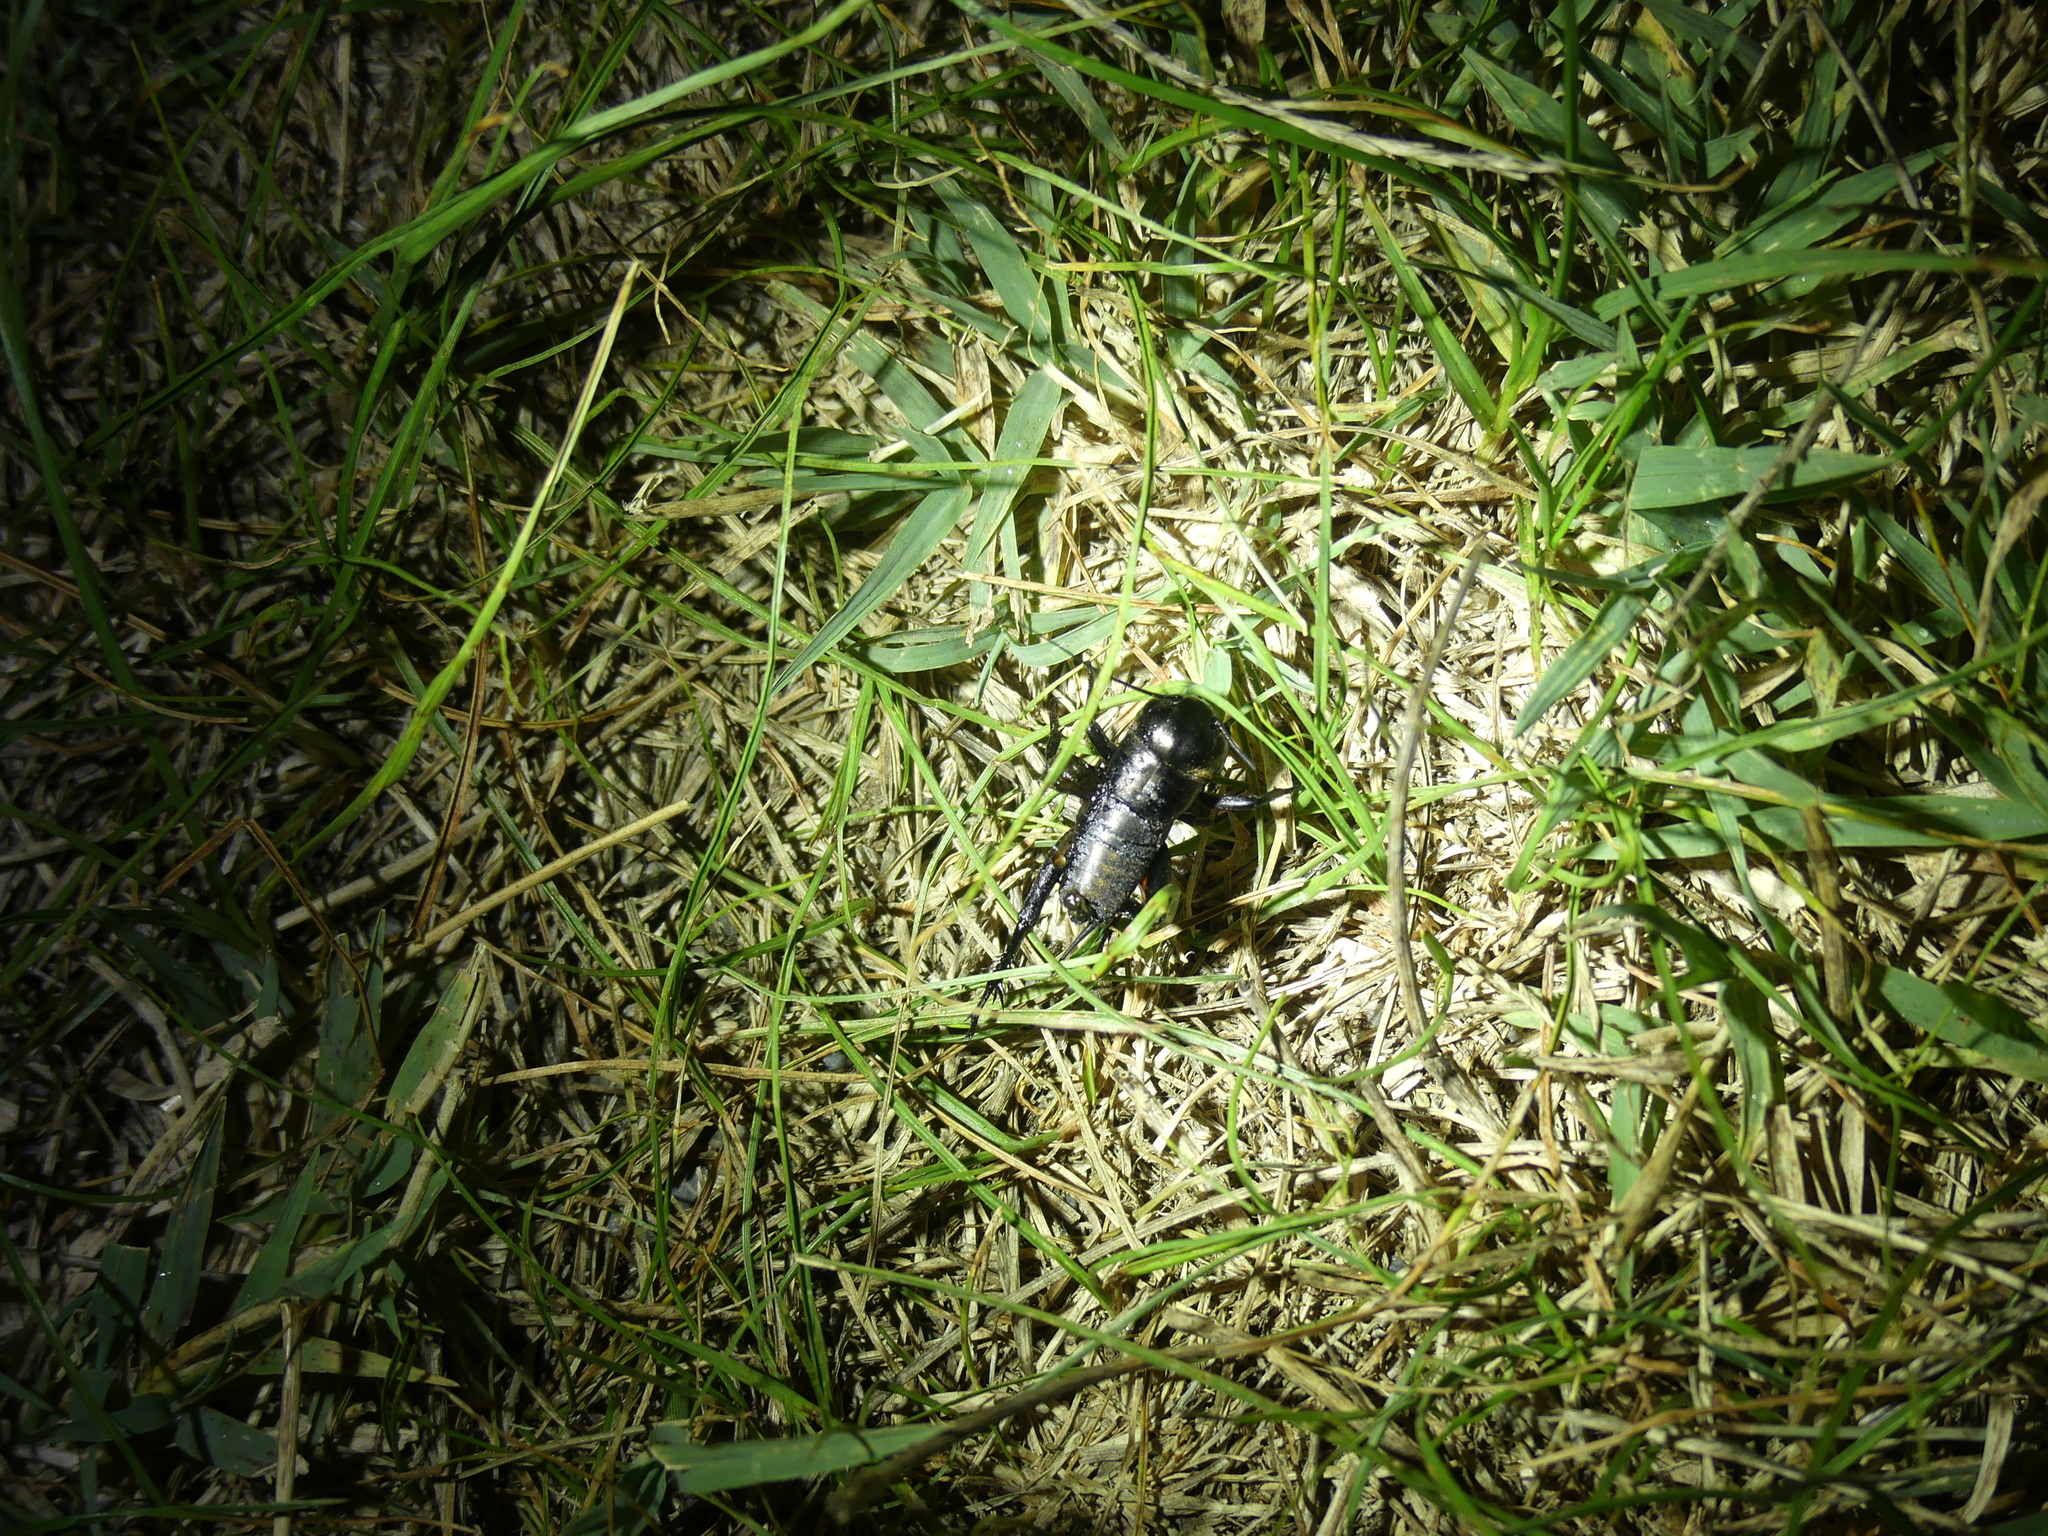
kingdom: Animalia
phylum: Arthropoda
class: Insecta
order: Orthoptera
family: Gryllidae
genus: Gryllus
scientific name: Gryllus campestris
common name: Field cricket
